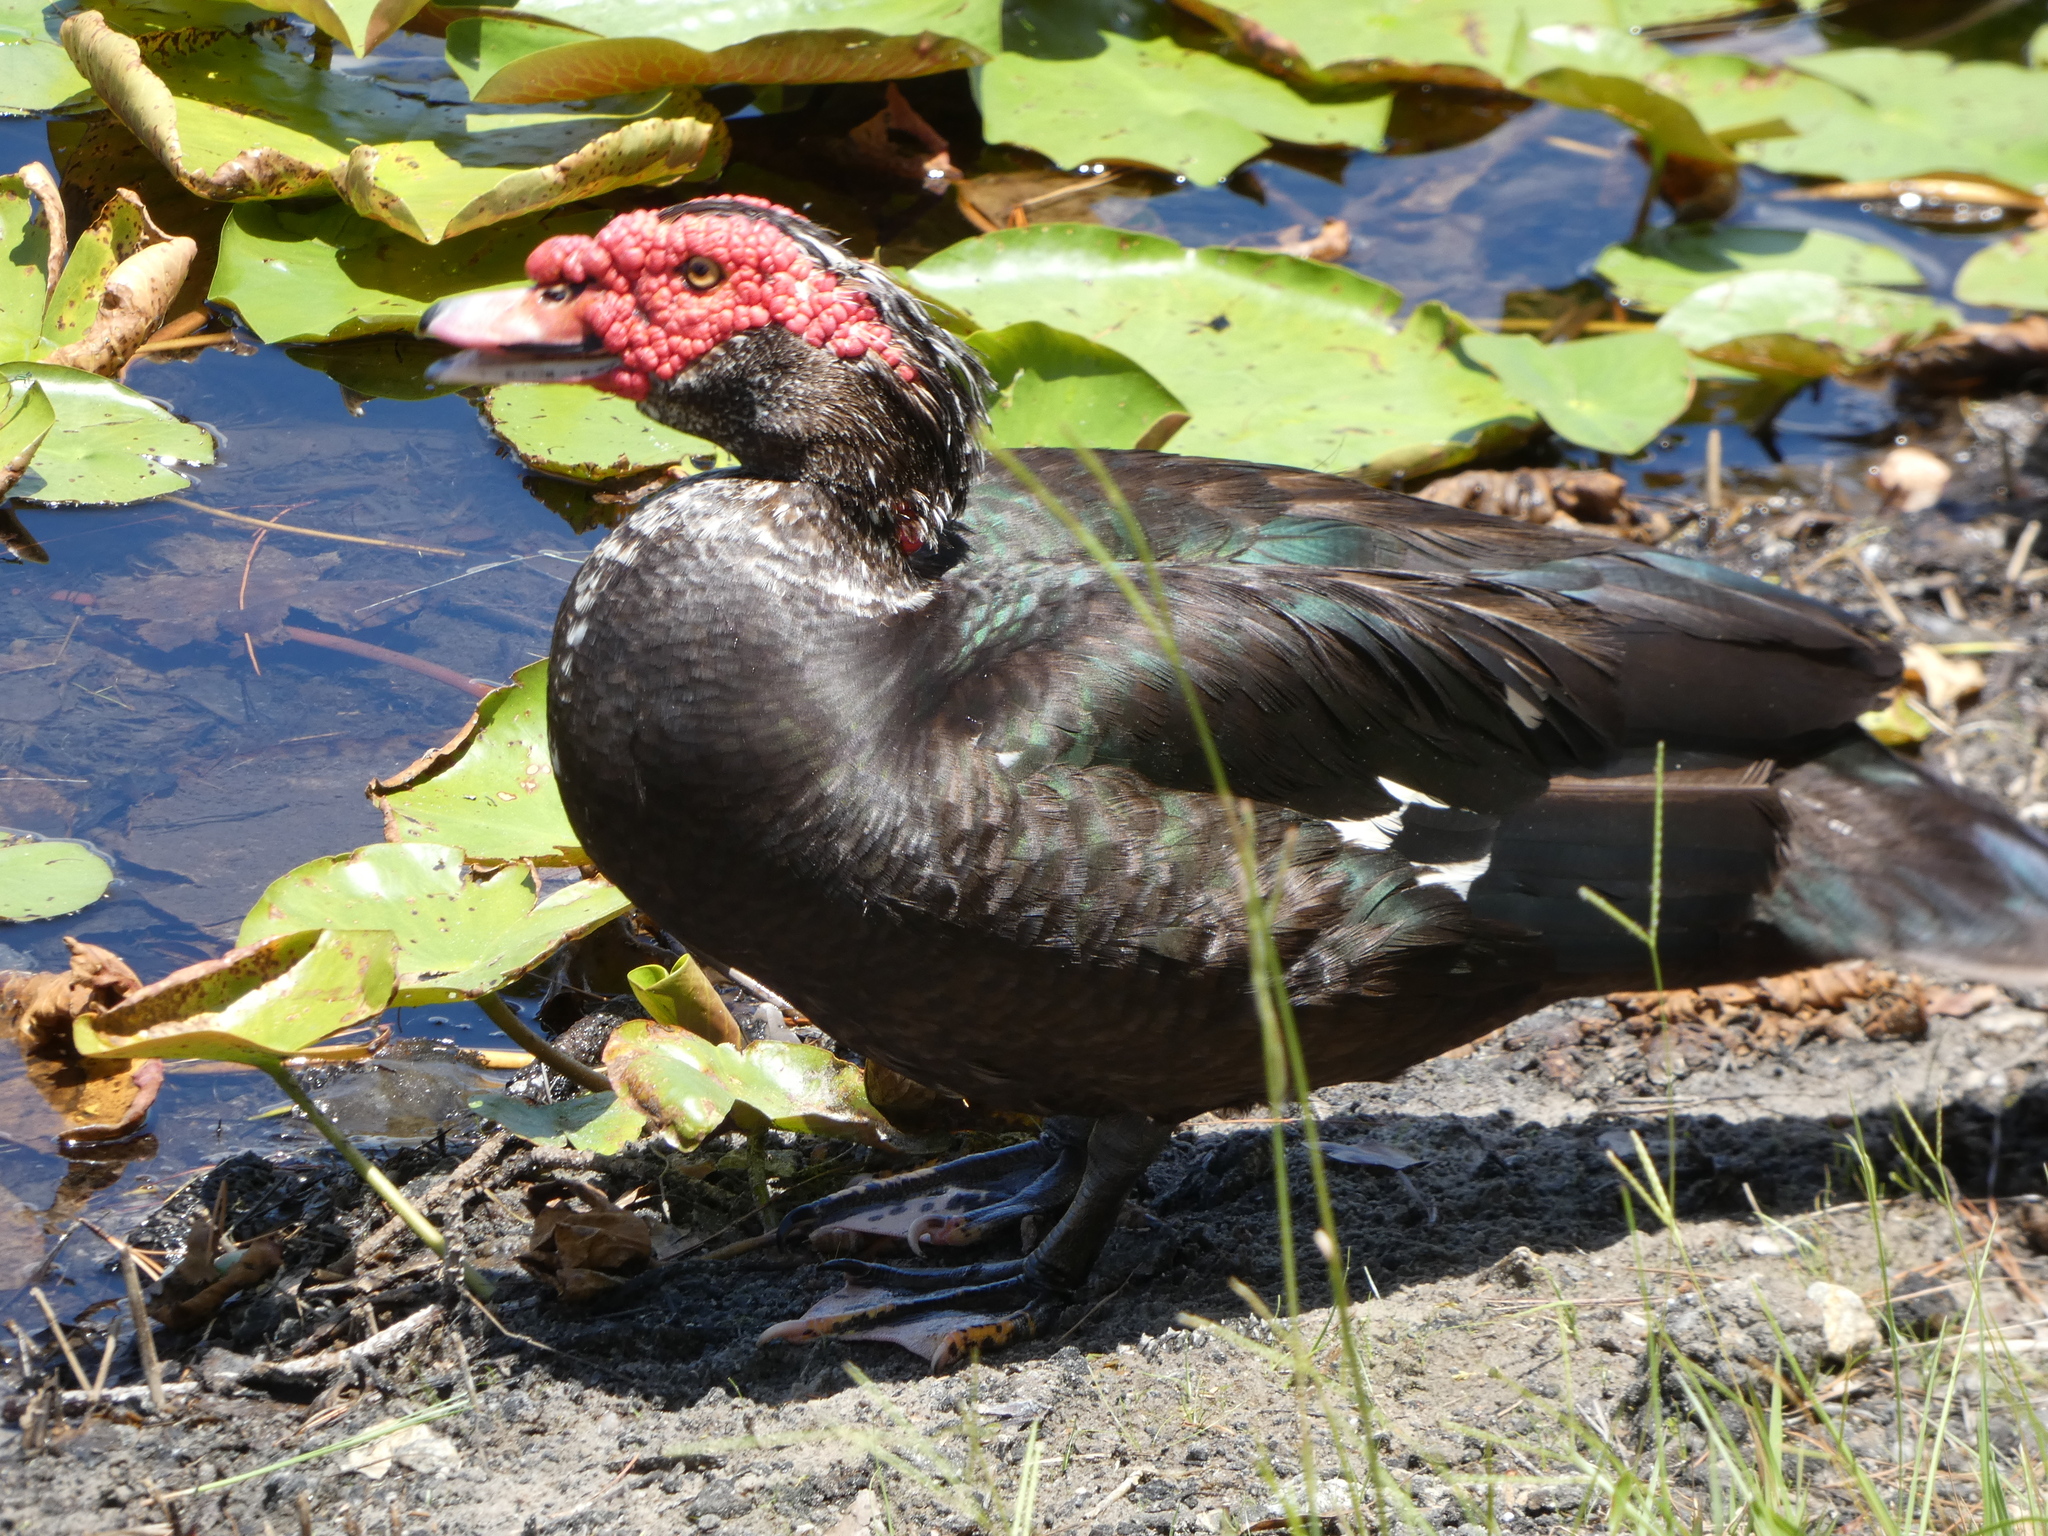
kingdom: Animalia
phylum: Chordata
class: Aves
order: Anseriformes
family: Anatidae
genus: Cairina
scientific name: Cairina moschata
